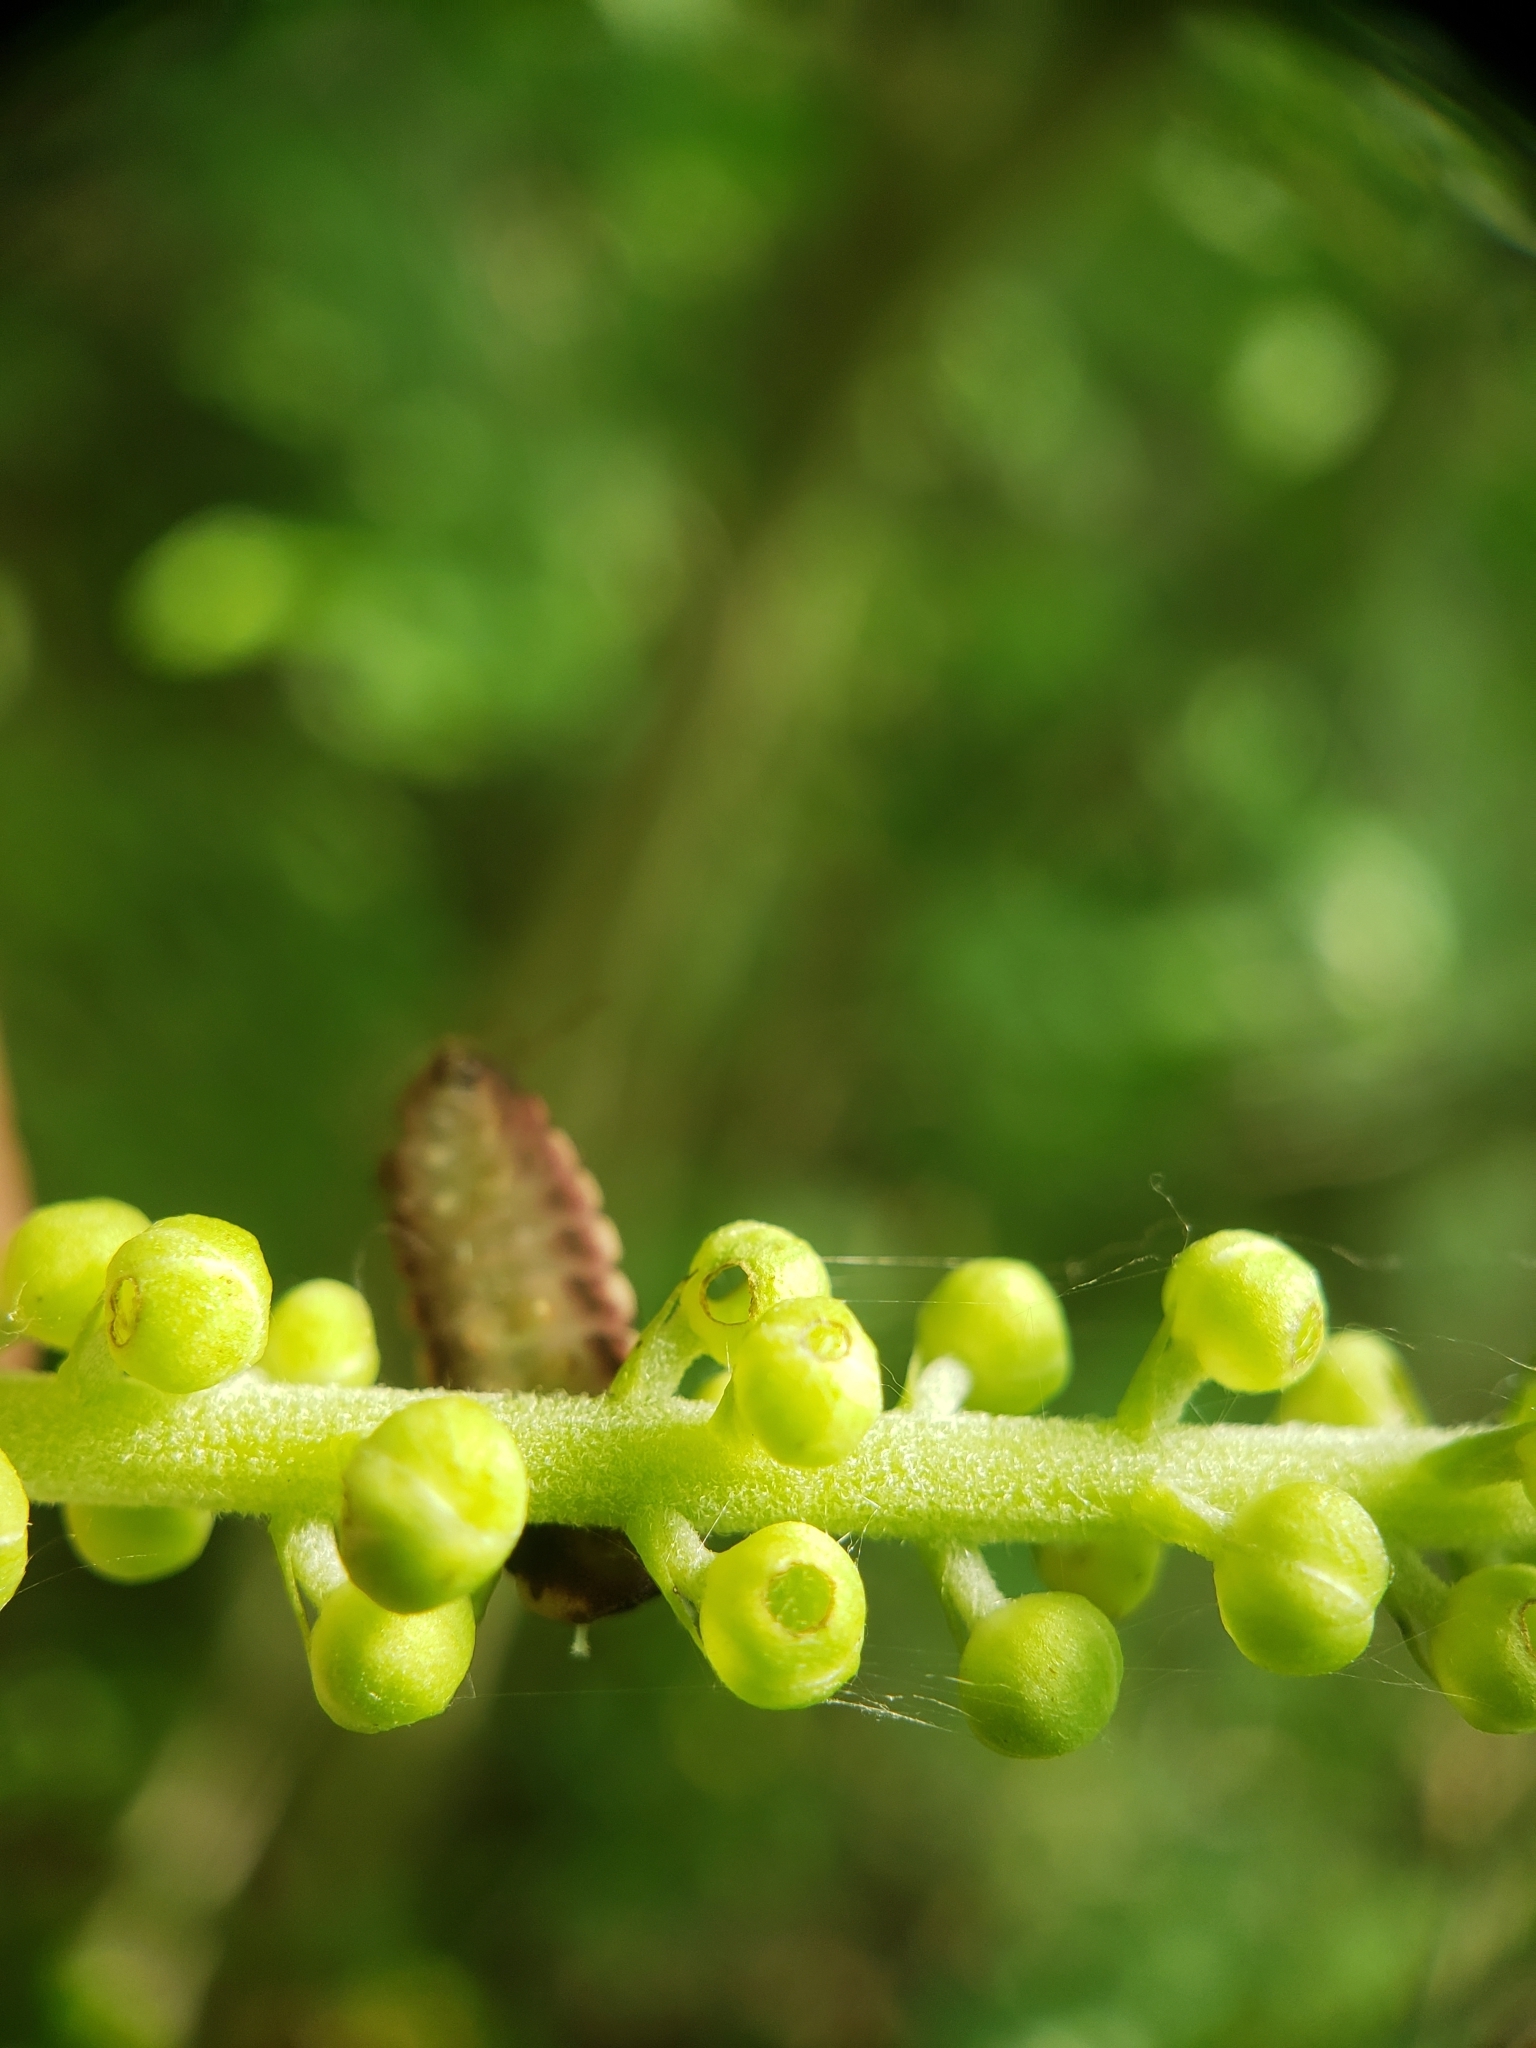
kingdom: Animalia
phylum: Arthropoda
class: Insecta
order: Lepidoptera
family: Lycaenidae
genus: Celastrina
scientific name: Celastrina neglectamajor
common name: Appalachian azure
